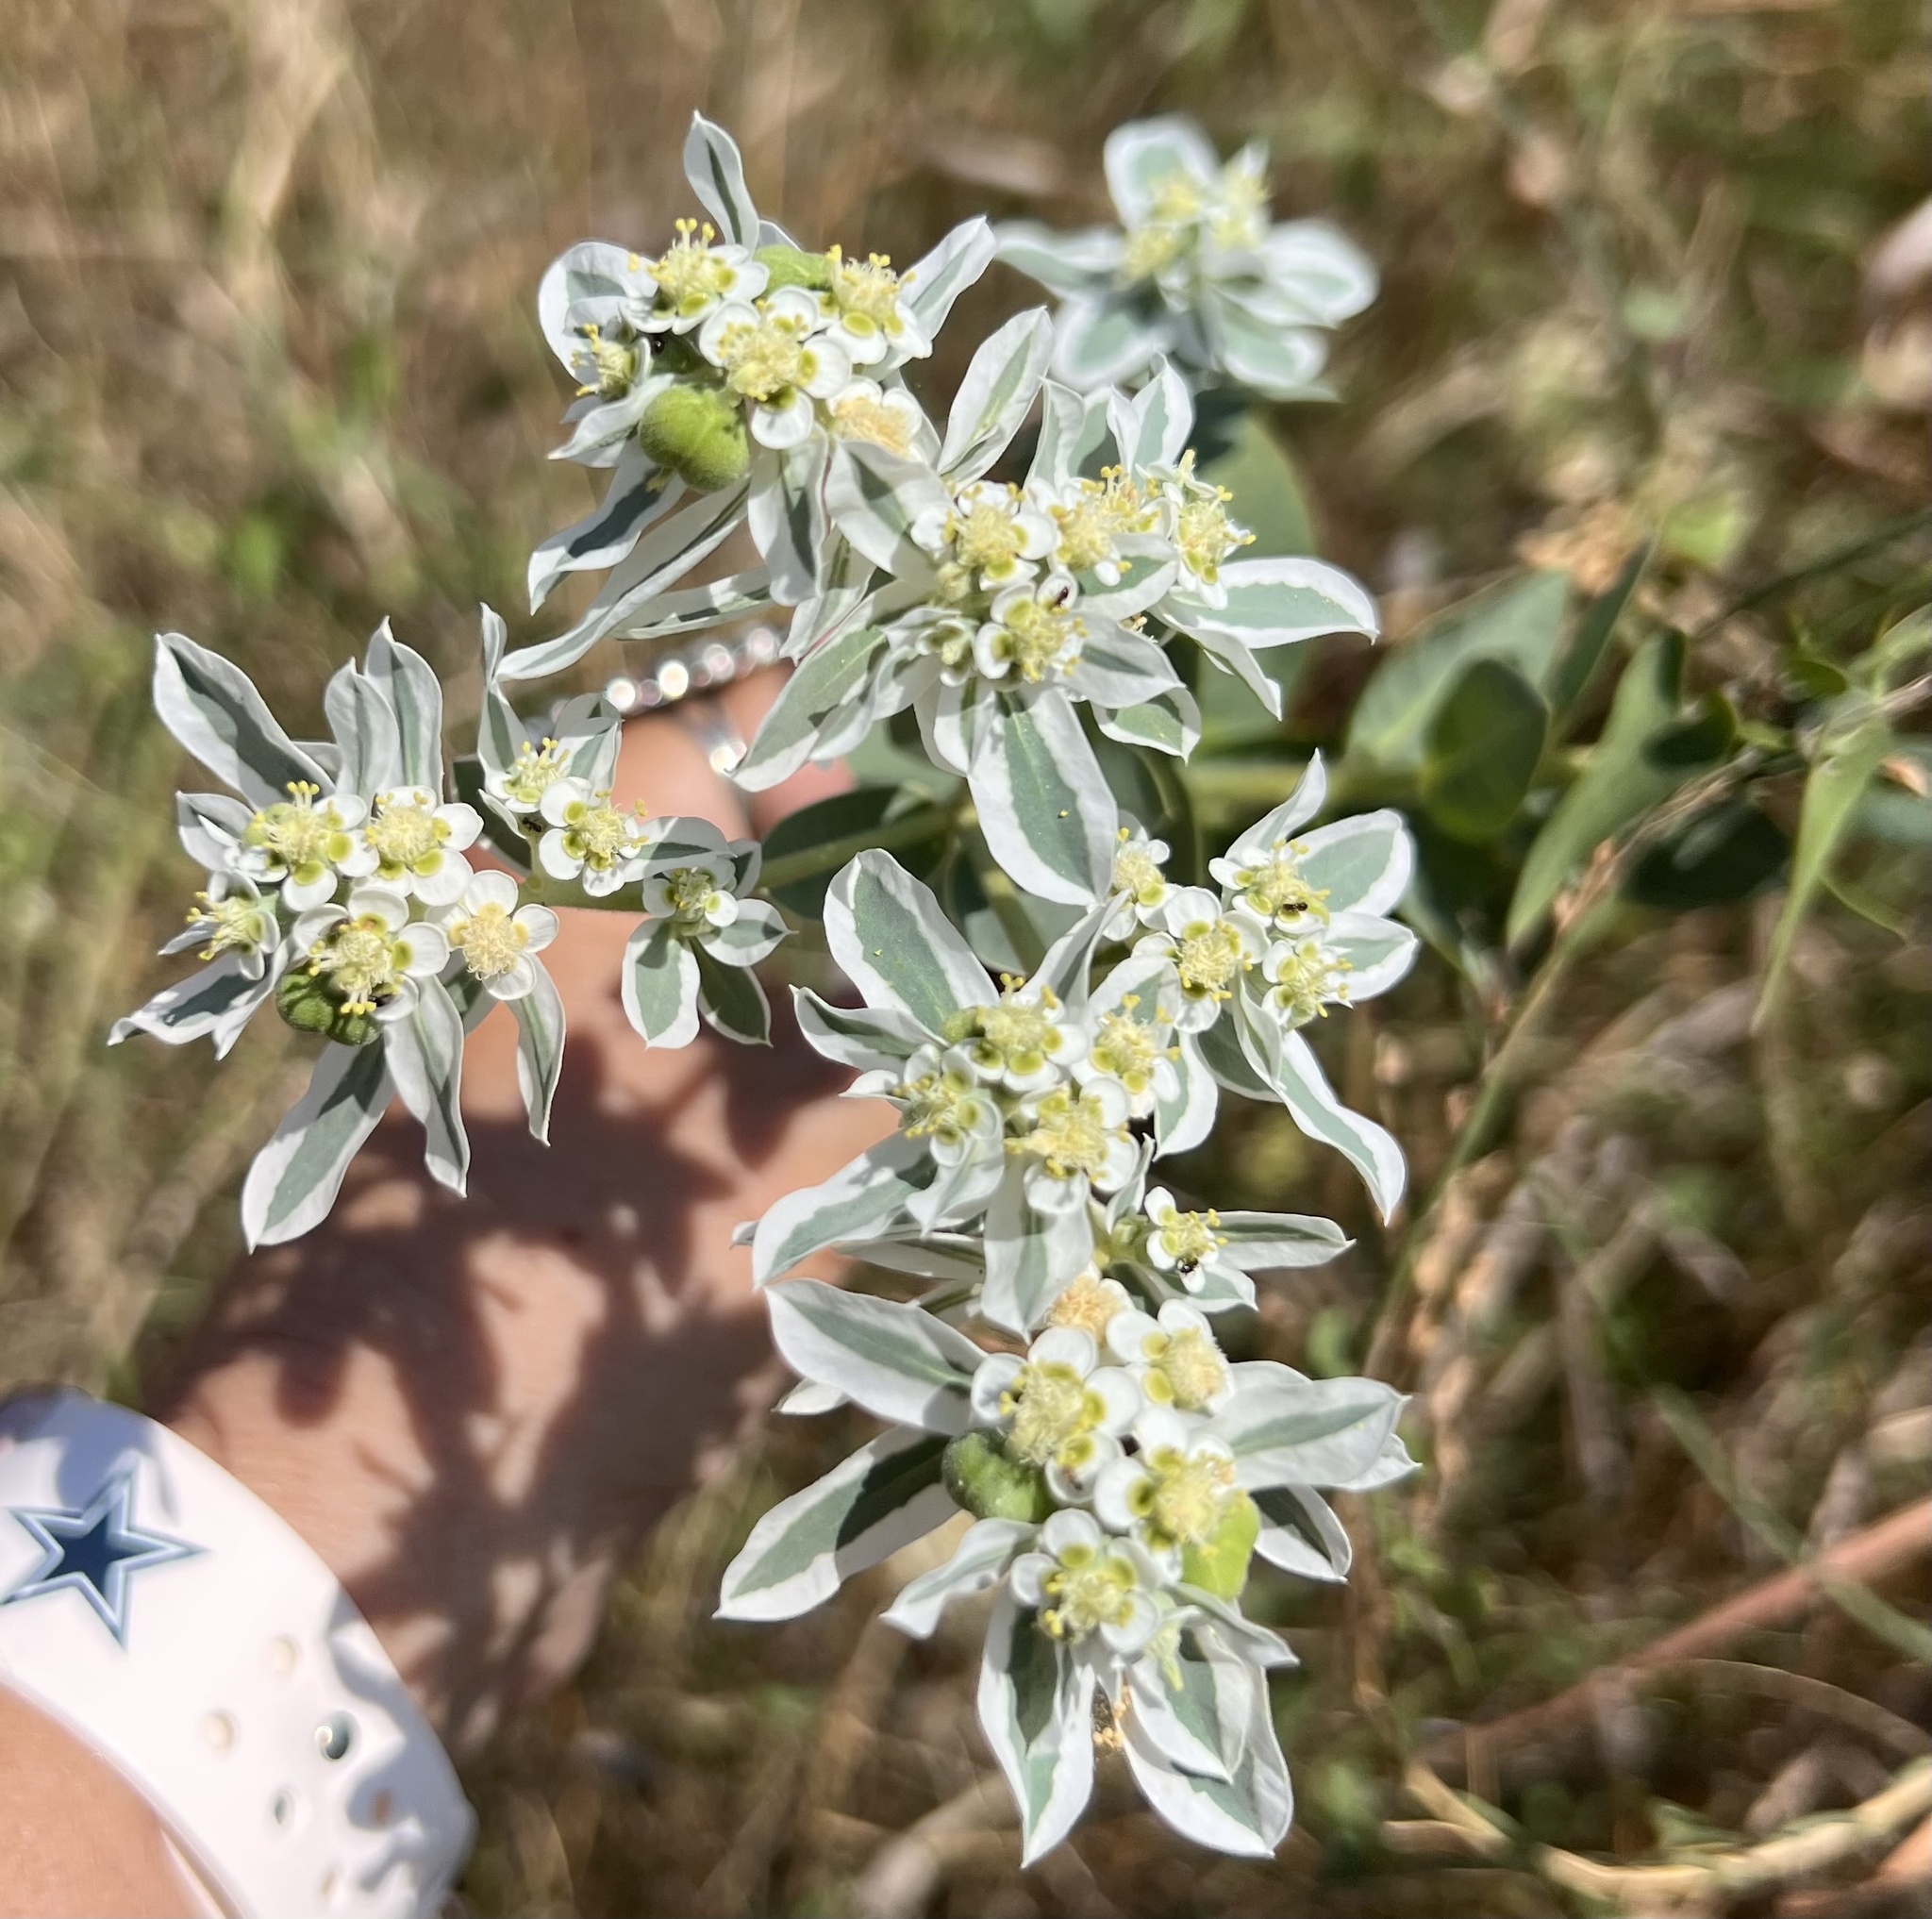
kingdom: Plantae
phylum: Tracheophyta
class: Magnoliopsida
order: Malpighiales
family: Euphorbiaceae
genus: Euphorbia
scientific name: Euphorbia marginata
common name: Ghostweed
